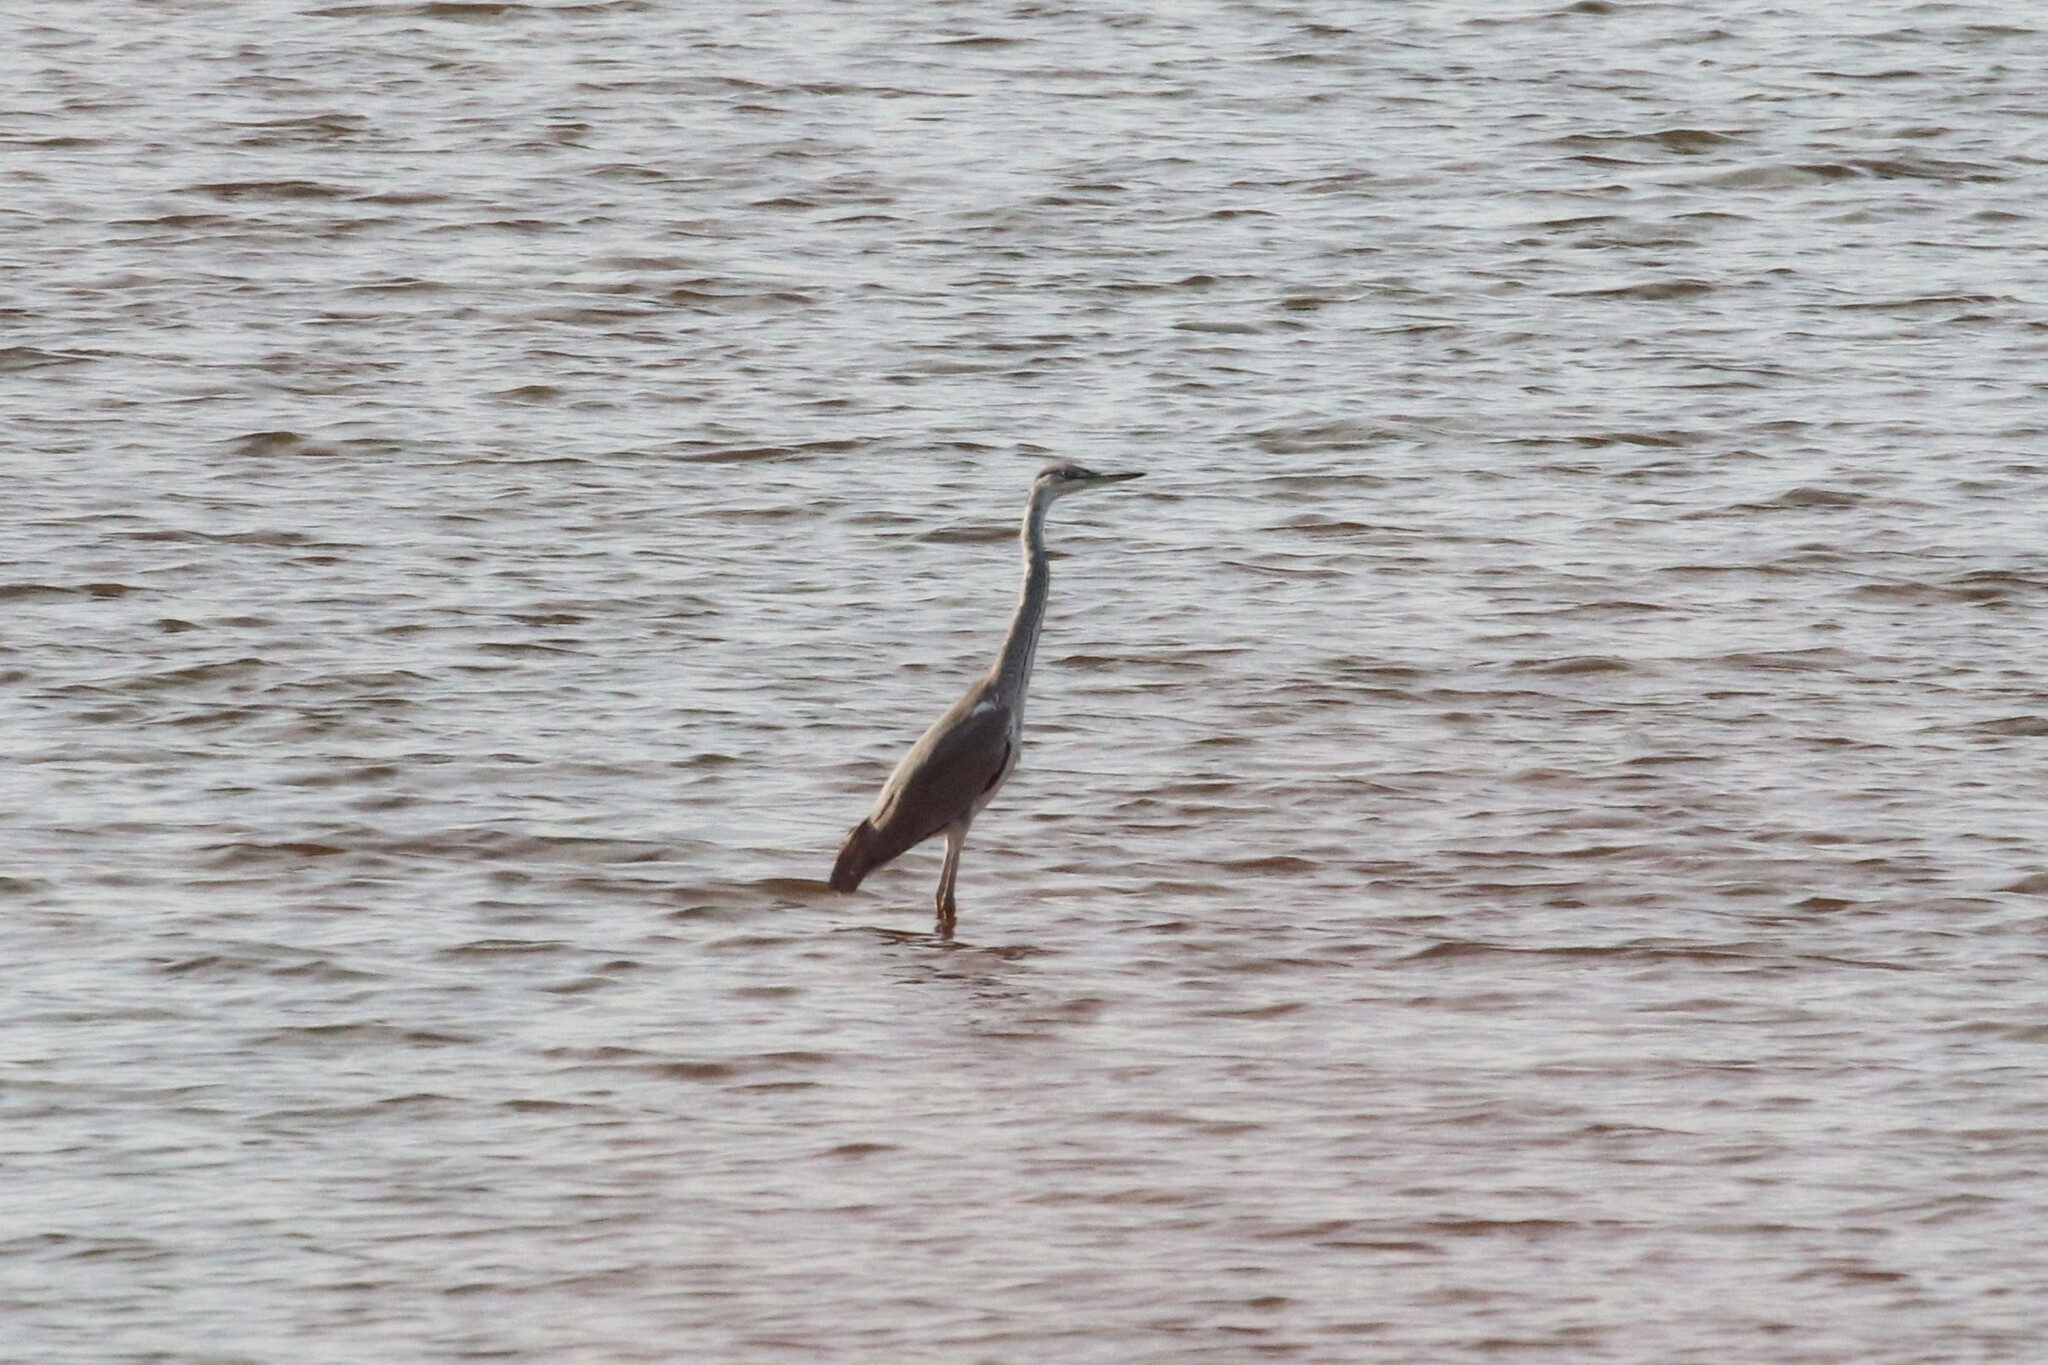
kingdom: Animalia
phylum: Chordata
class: Aves
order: Pelecaniformes
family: Ardeidae
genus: Ardea
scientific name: Ardea cinerea
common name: Grey heron
